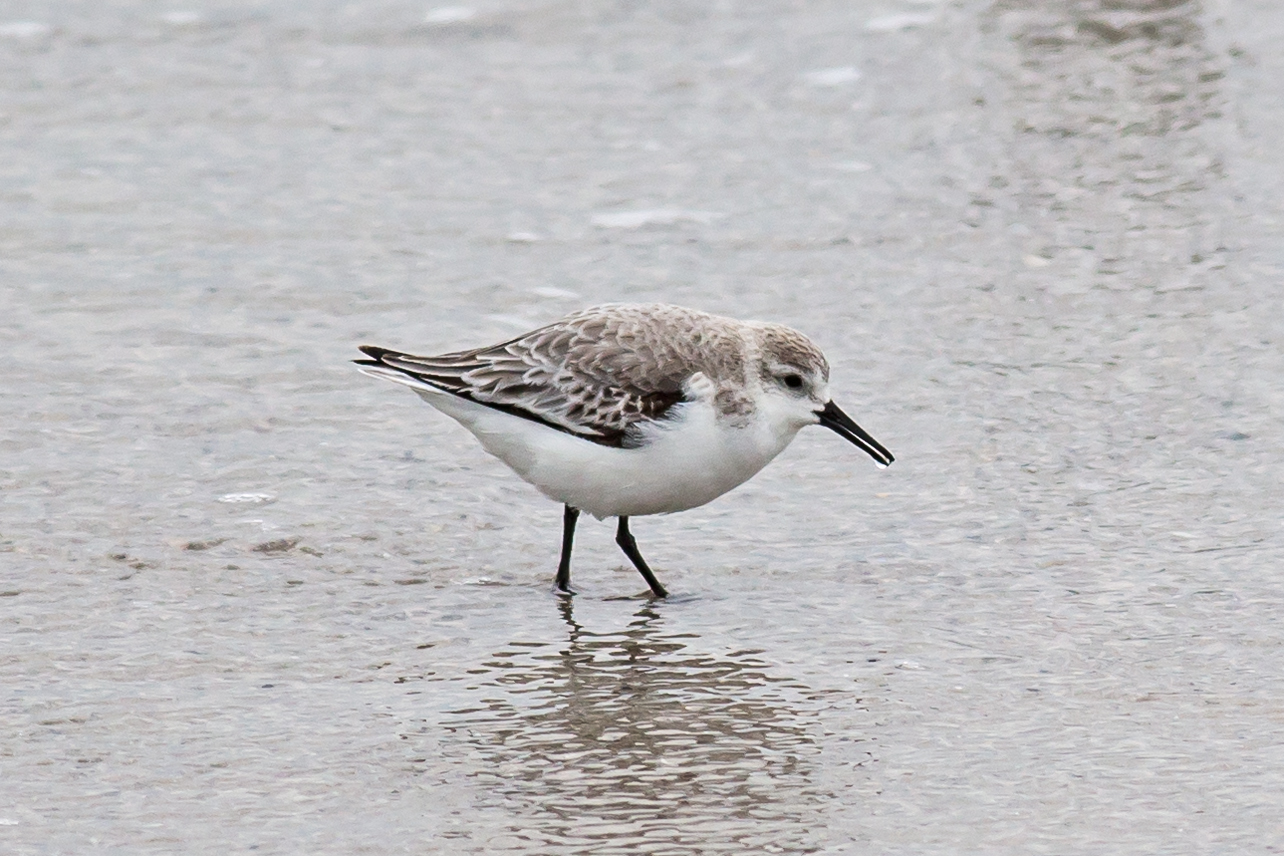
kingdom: Animalia
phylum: Chordata
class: Aves
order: Charadriiformes
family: Scolopacidae
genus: Calidris
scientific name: Calidris alba
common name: Sanderling
